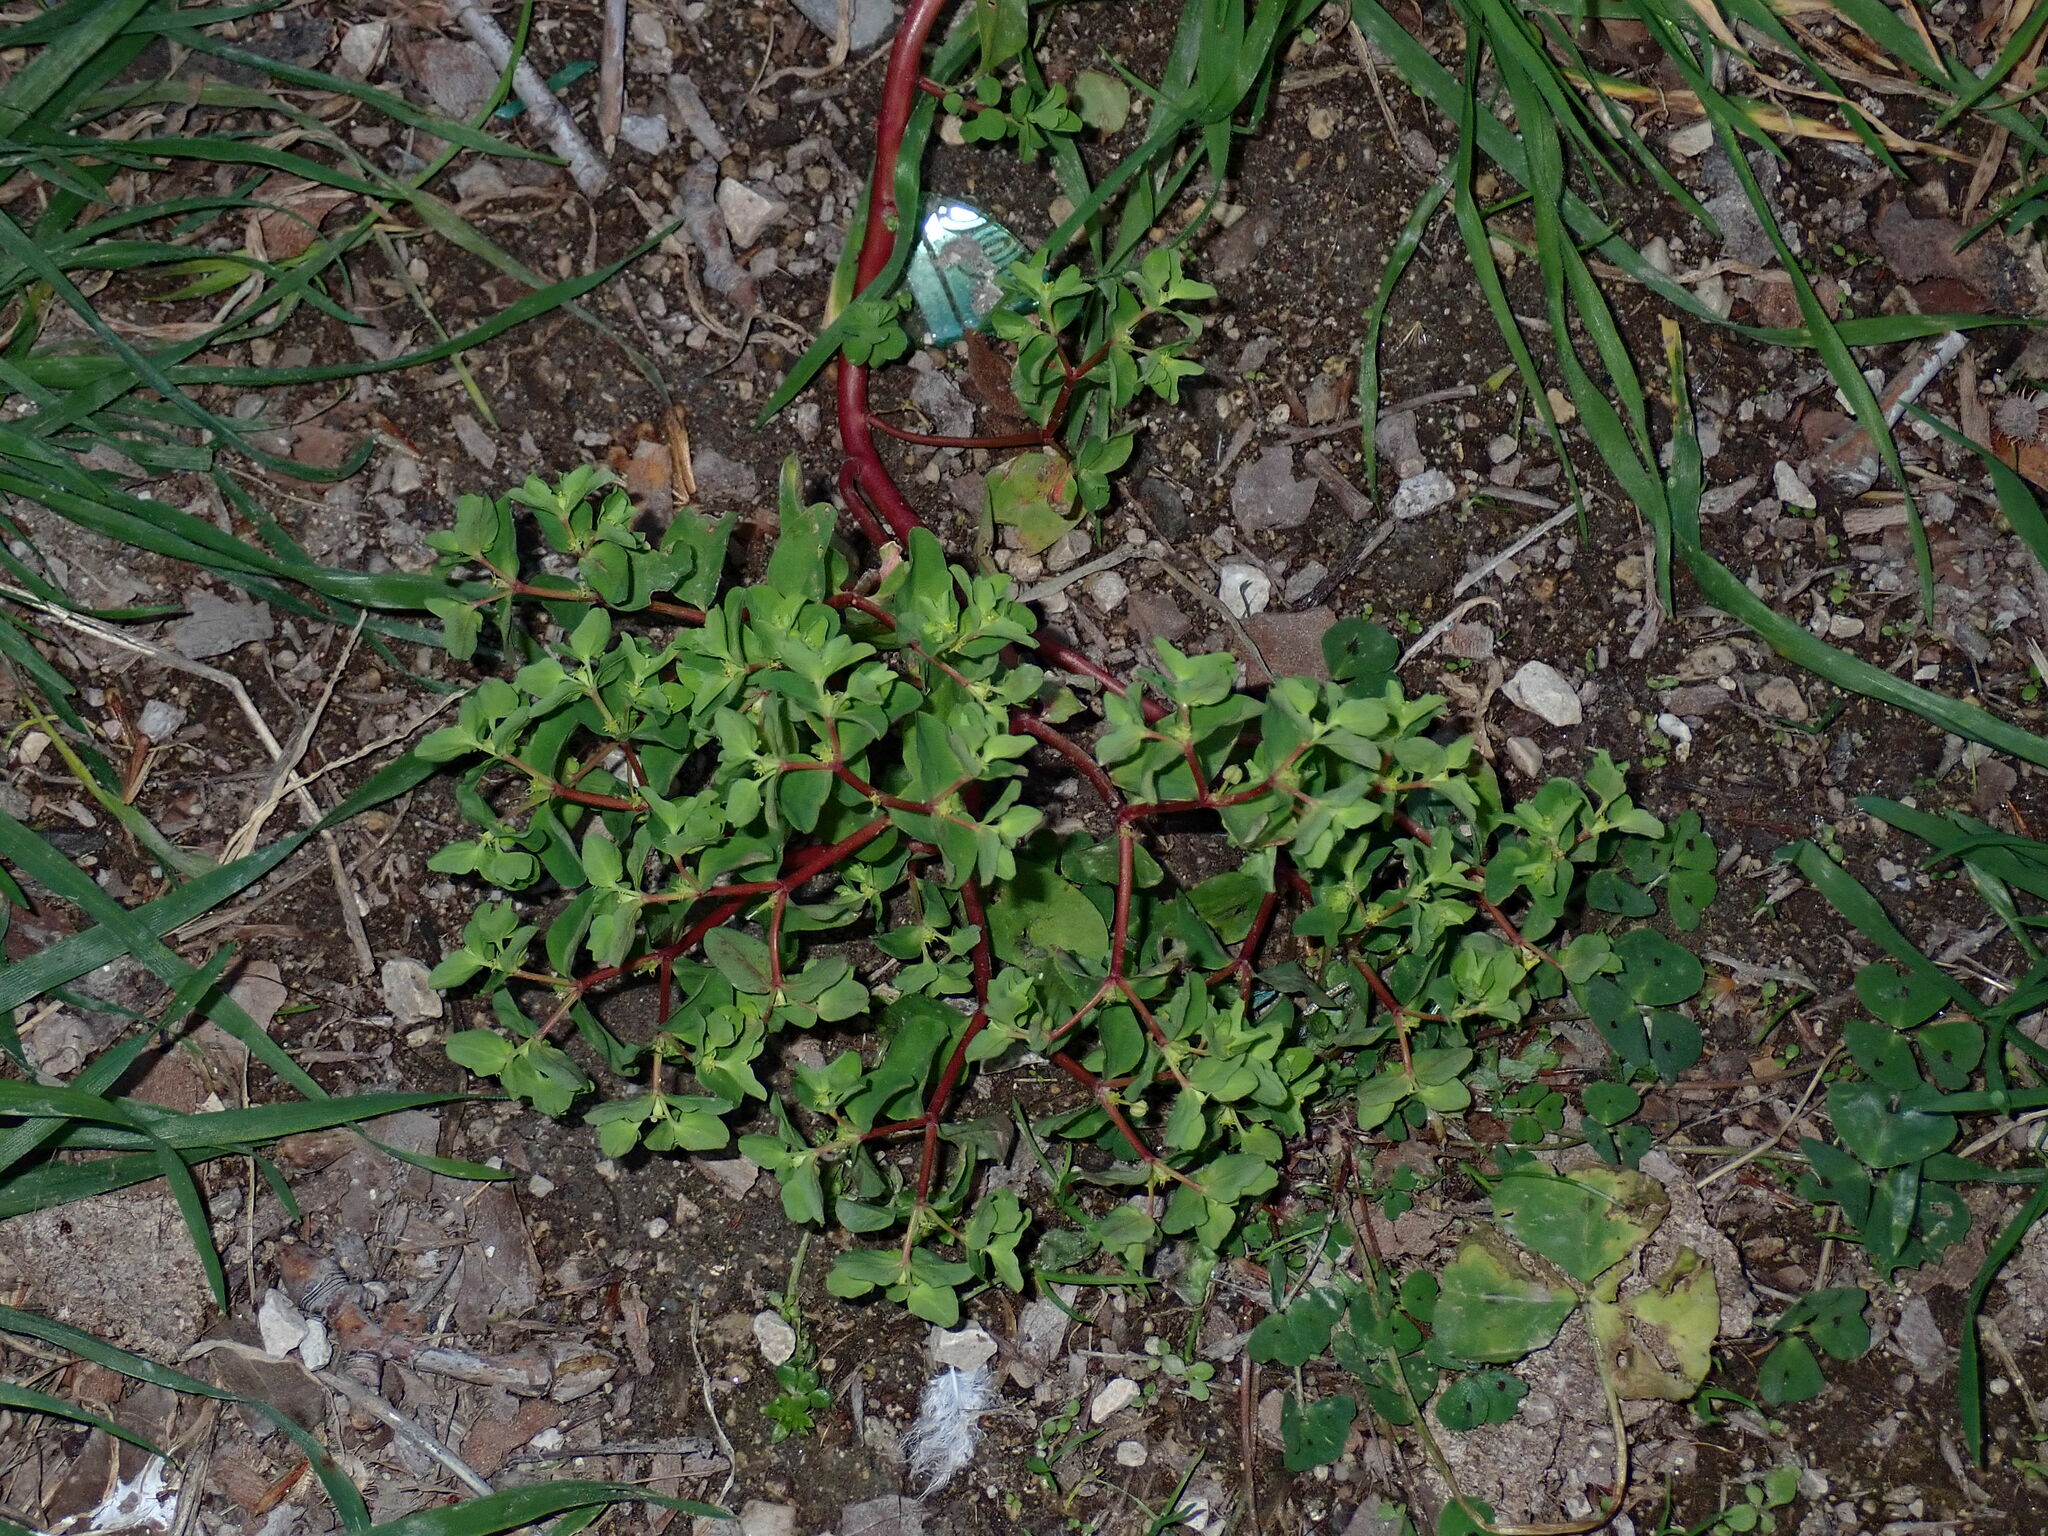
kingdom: Plantae
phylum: Tracheophyta
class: Magnoliopsida
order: Malpighiales
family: Euphorbiaceae
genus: Euphorbia
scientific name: Euphorbia peplus
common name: Petty spurge
